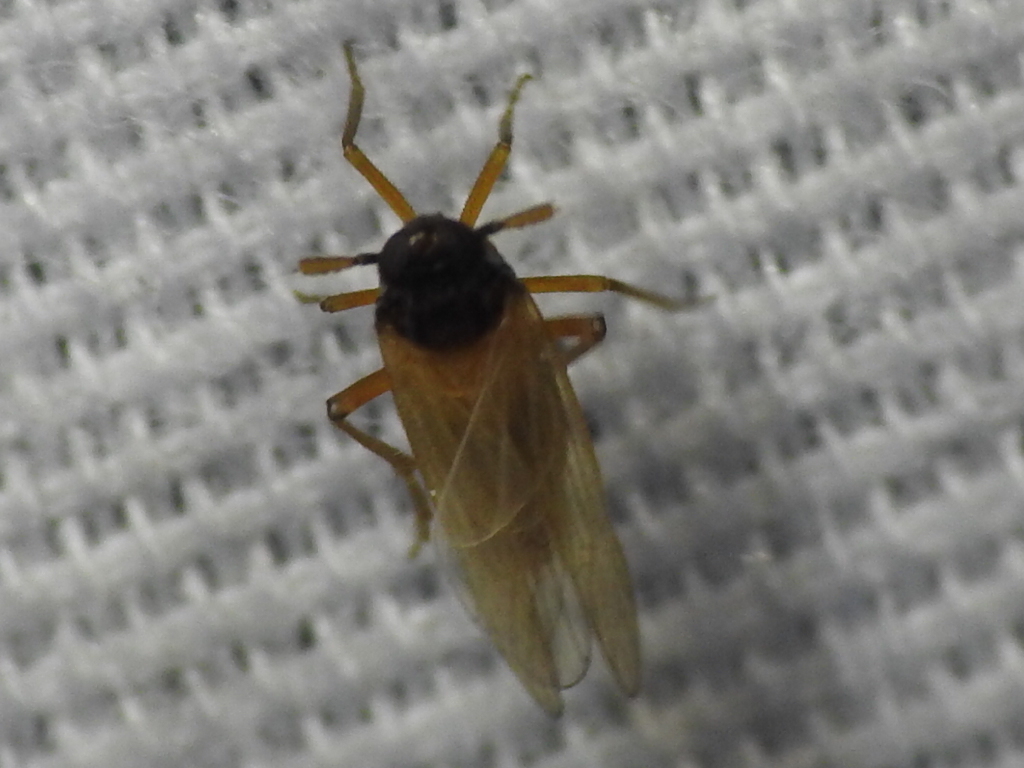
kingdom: Animalia
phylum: Arthropoda
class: Insecta
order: Hemiptera
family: Delphacidae
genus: Penepissonotus
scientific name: Penepissonotus bicolor
